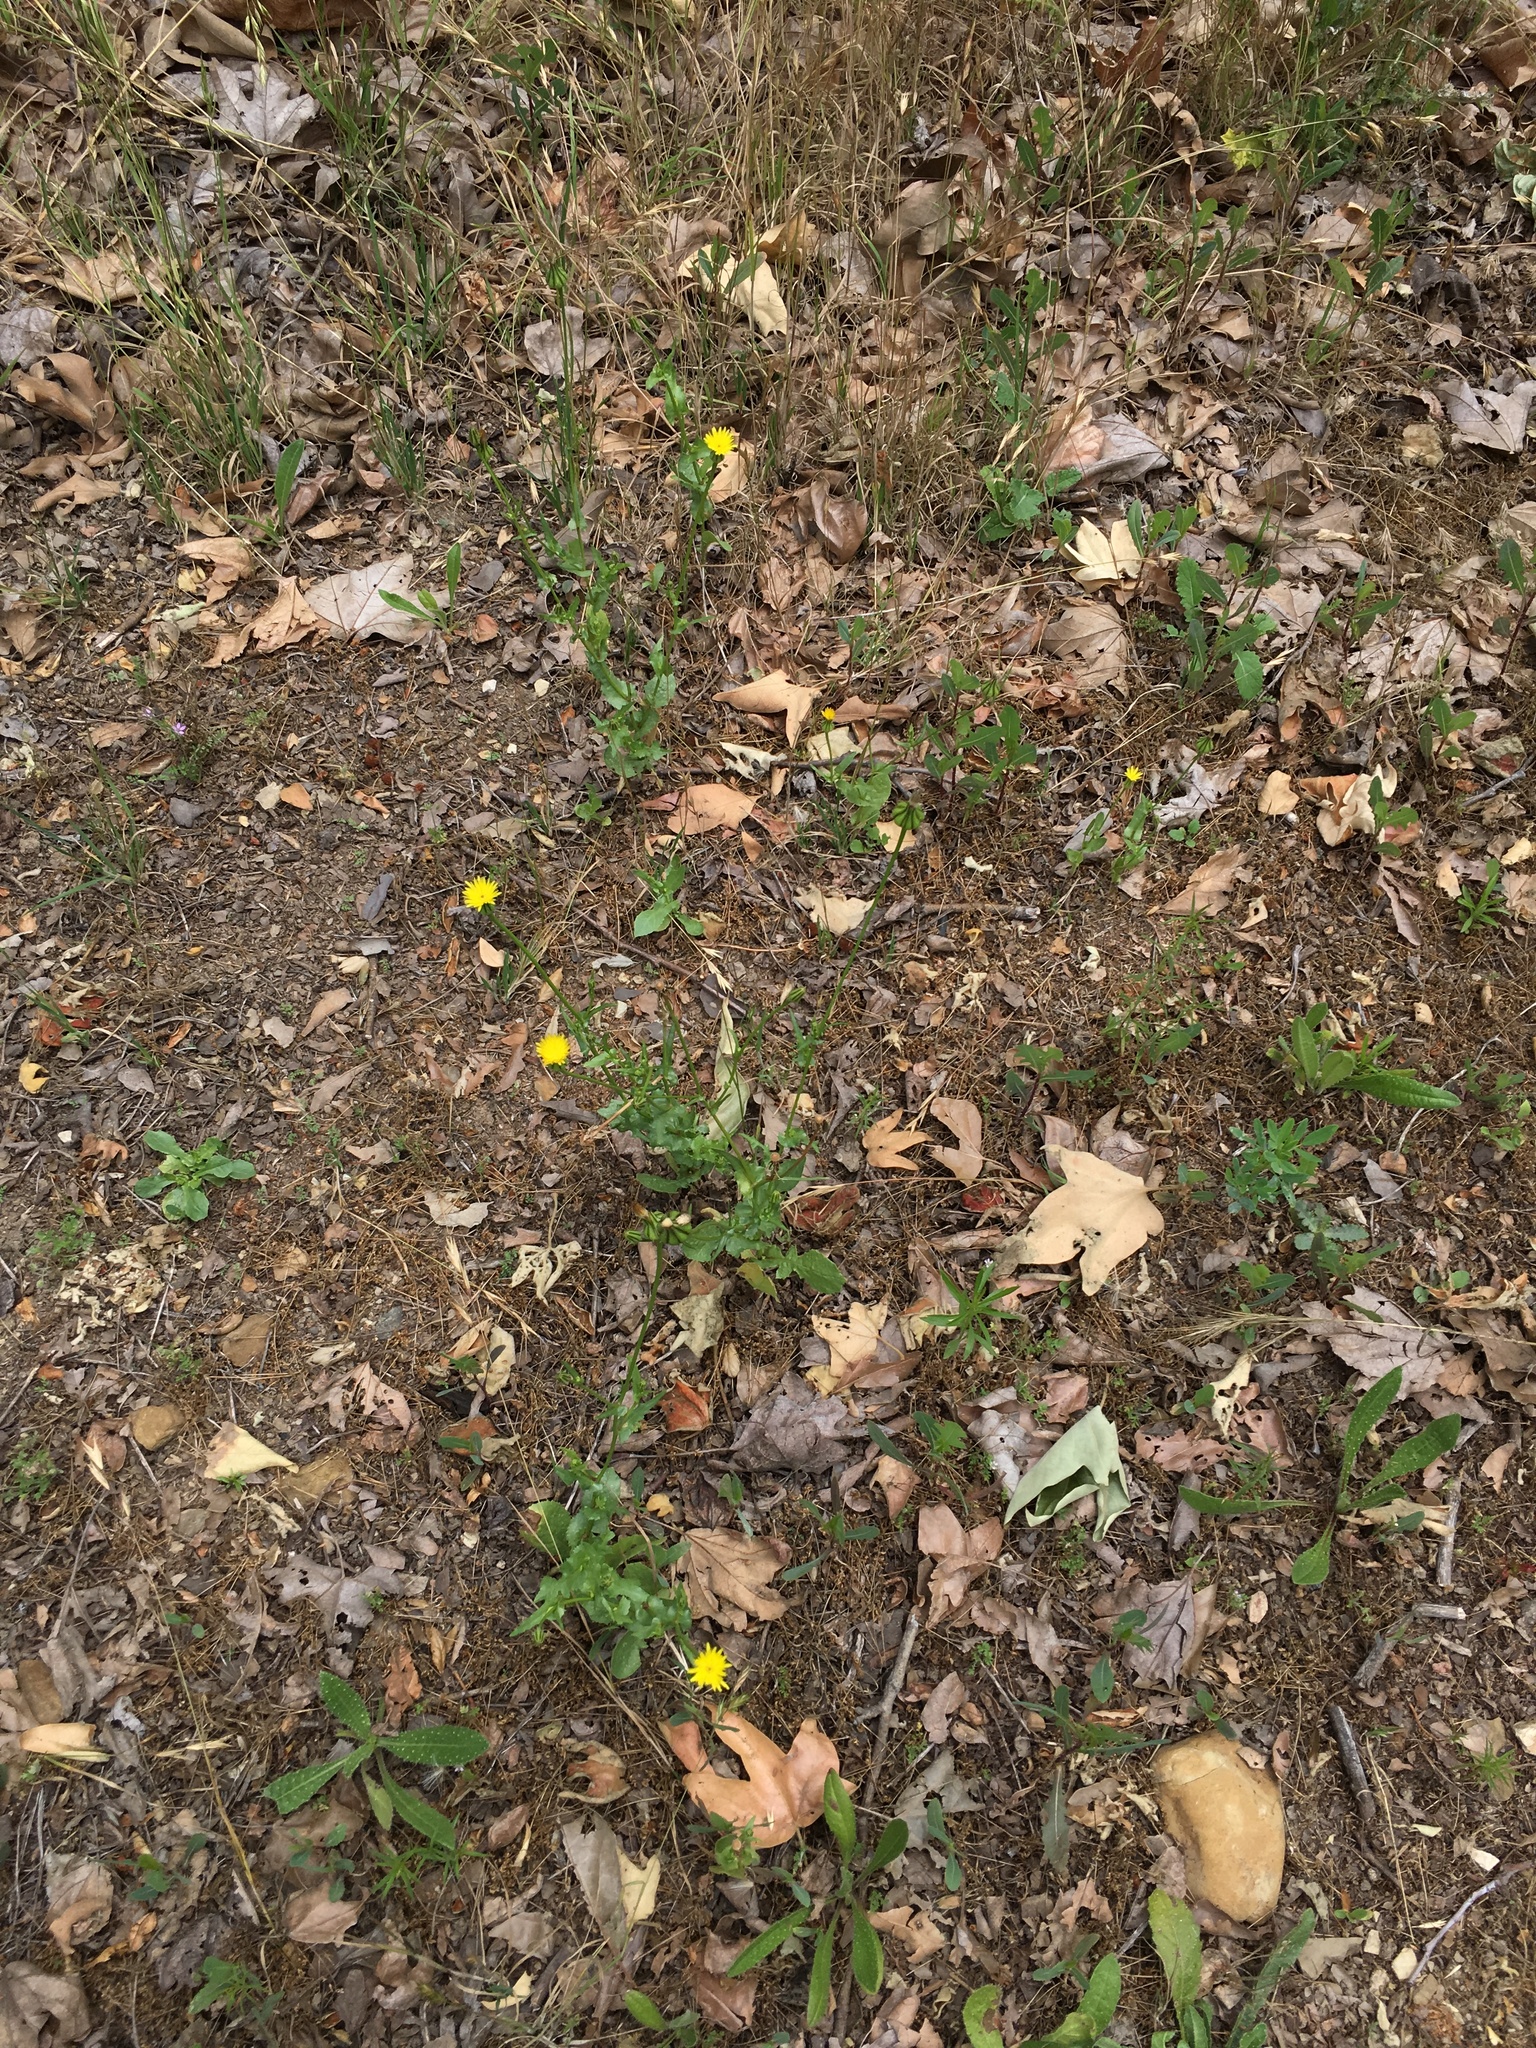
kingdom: Plantae
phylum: Tracheophyta
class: Magnoliopsida
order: Asterales
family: Asteraceae
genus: Urospermum
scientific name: Urospermum picroides
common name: False hawkbit
